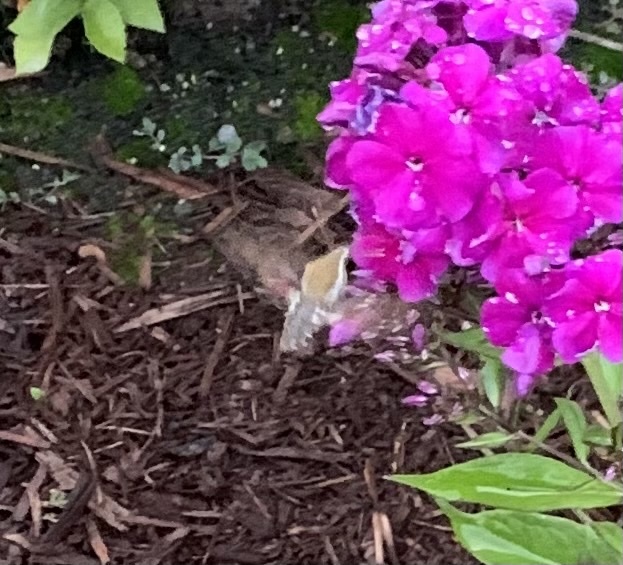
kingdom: Animalia
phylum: Arthropoda
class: Insecta
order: Lepidoptera
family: Sphingidae
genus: Hyles
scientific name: Hyles gallii
